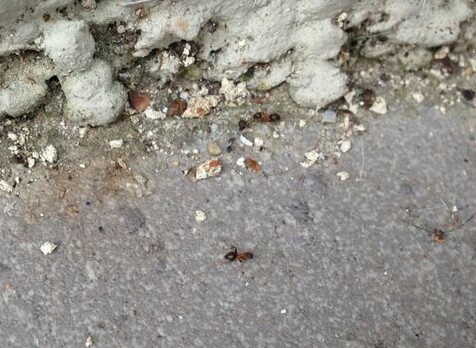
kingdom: Animalia
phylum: Arthropoda
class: Insecta
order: Hymenoptera
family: Formicidae
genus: Lasius
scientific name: Lasius emarginatus
